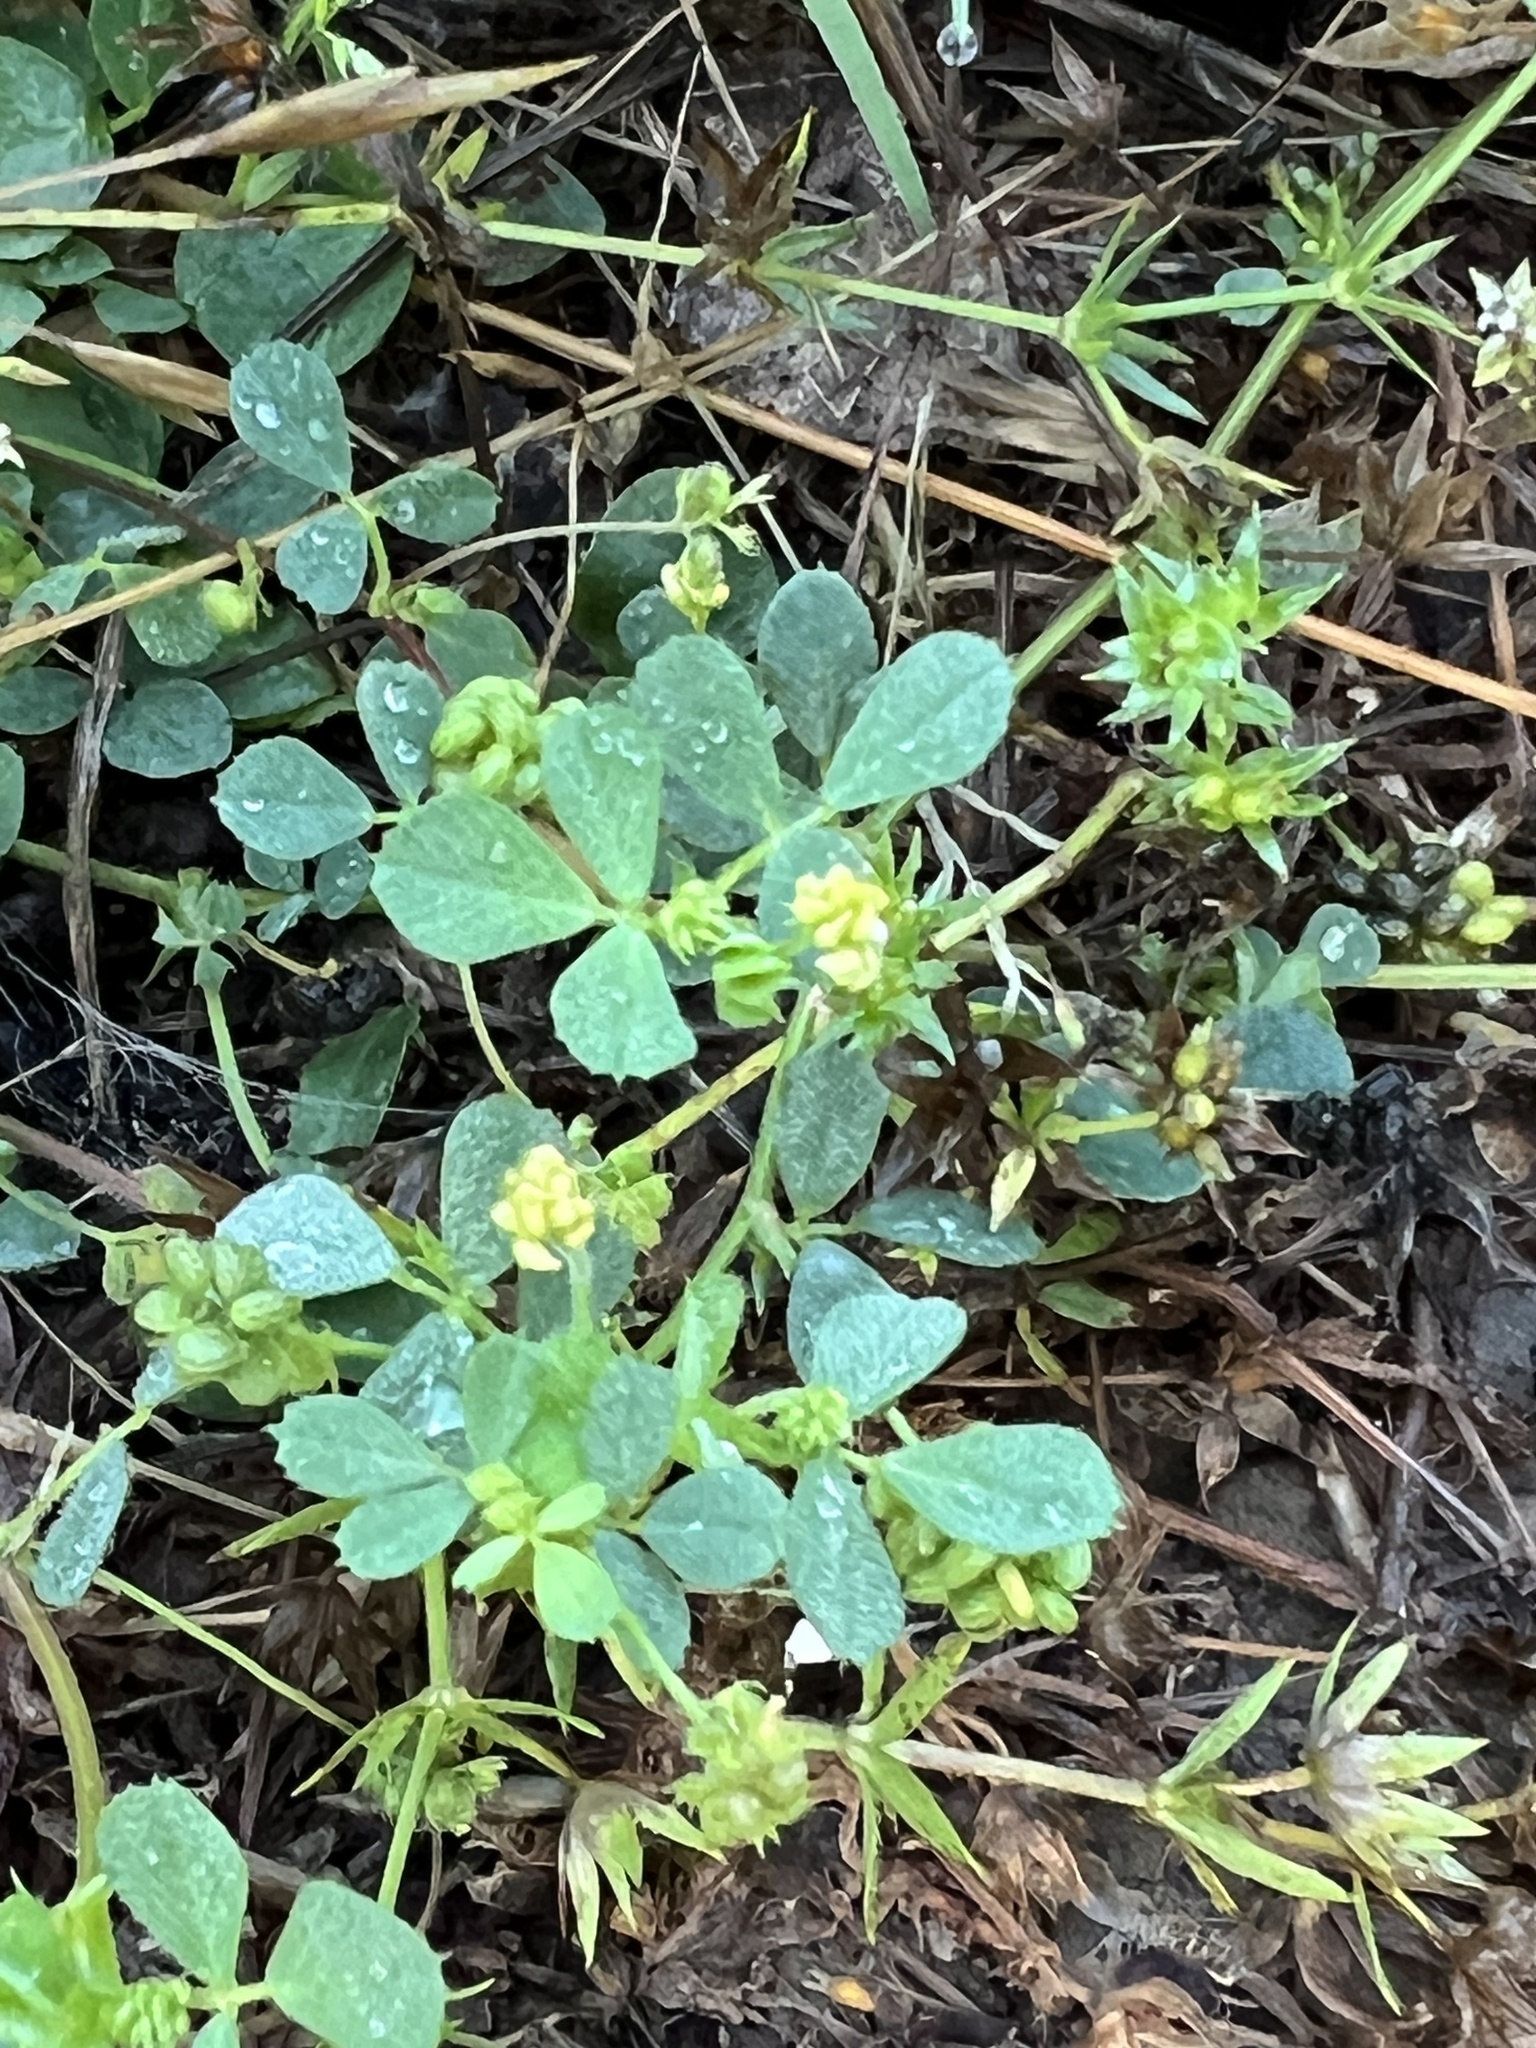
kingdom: Plantae
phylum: Tracheophyta
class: Magnoliopsida
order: Fabales
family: Fabaceae
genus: Medicago
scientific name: Medicago lupulina
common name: Black medick
